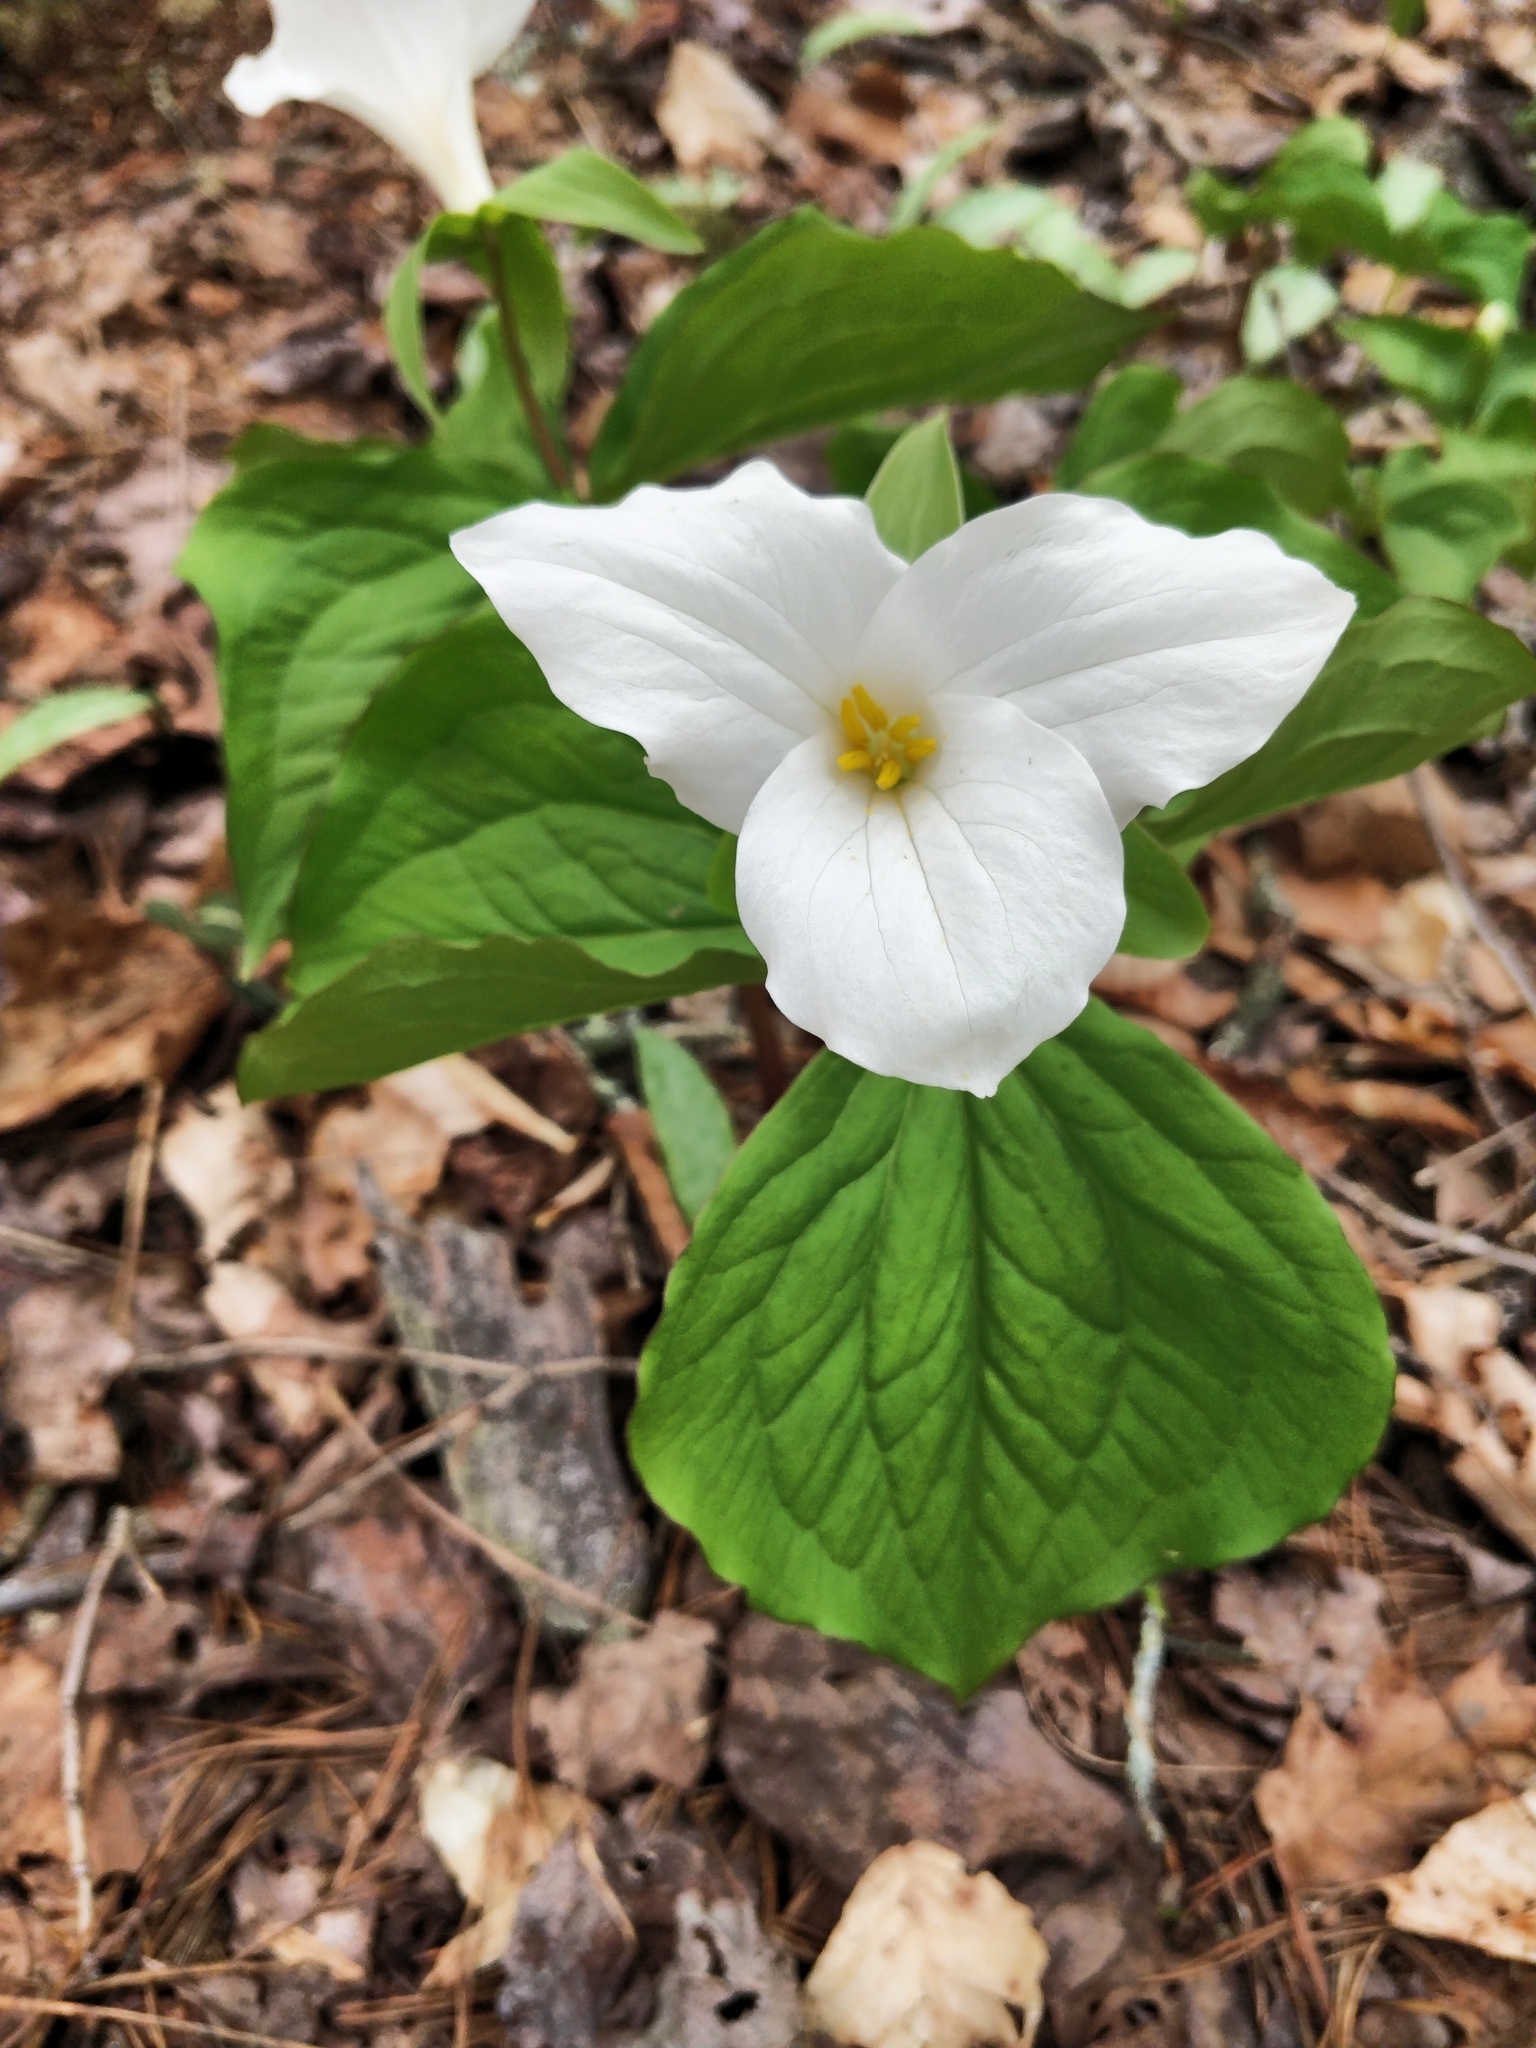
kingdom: Plantae
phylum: Tracheophyta
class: Liliopsida
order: Liliales
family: Melanthiaceae
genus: Trillium
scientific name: Trillium grandiflorum
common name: Great white trillium
